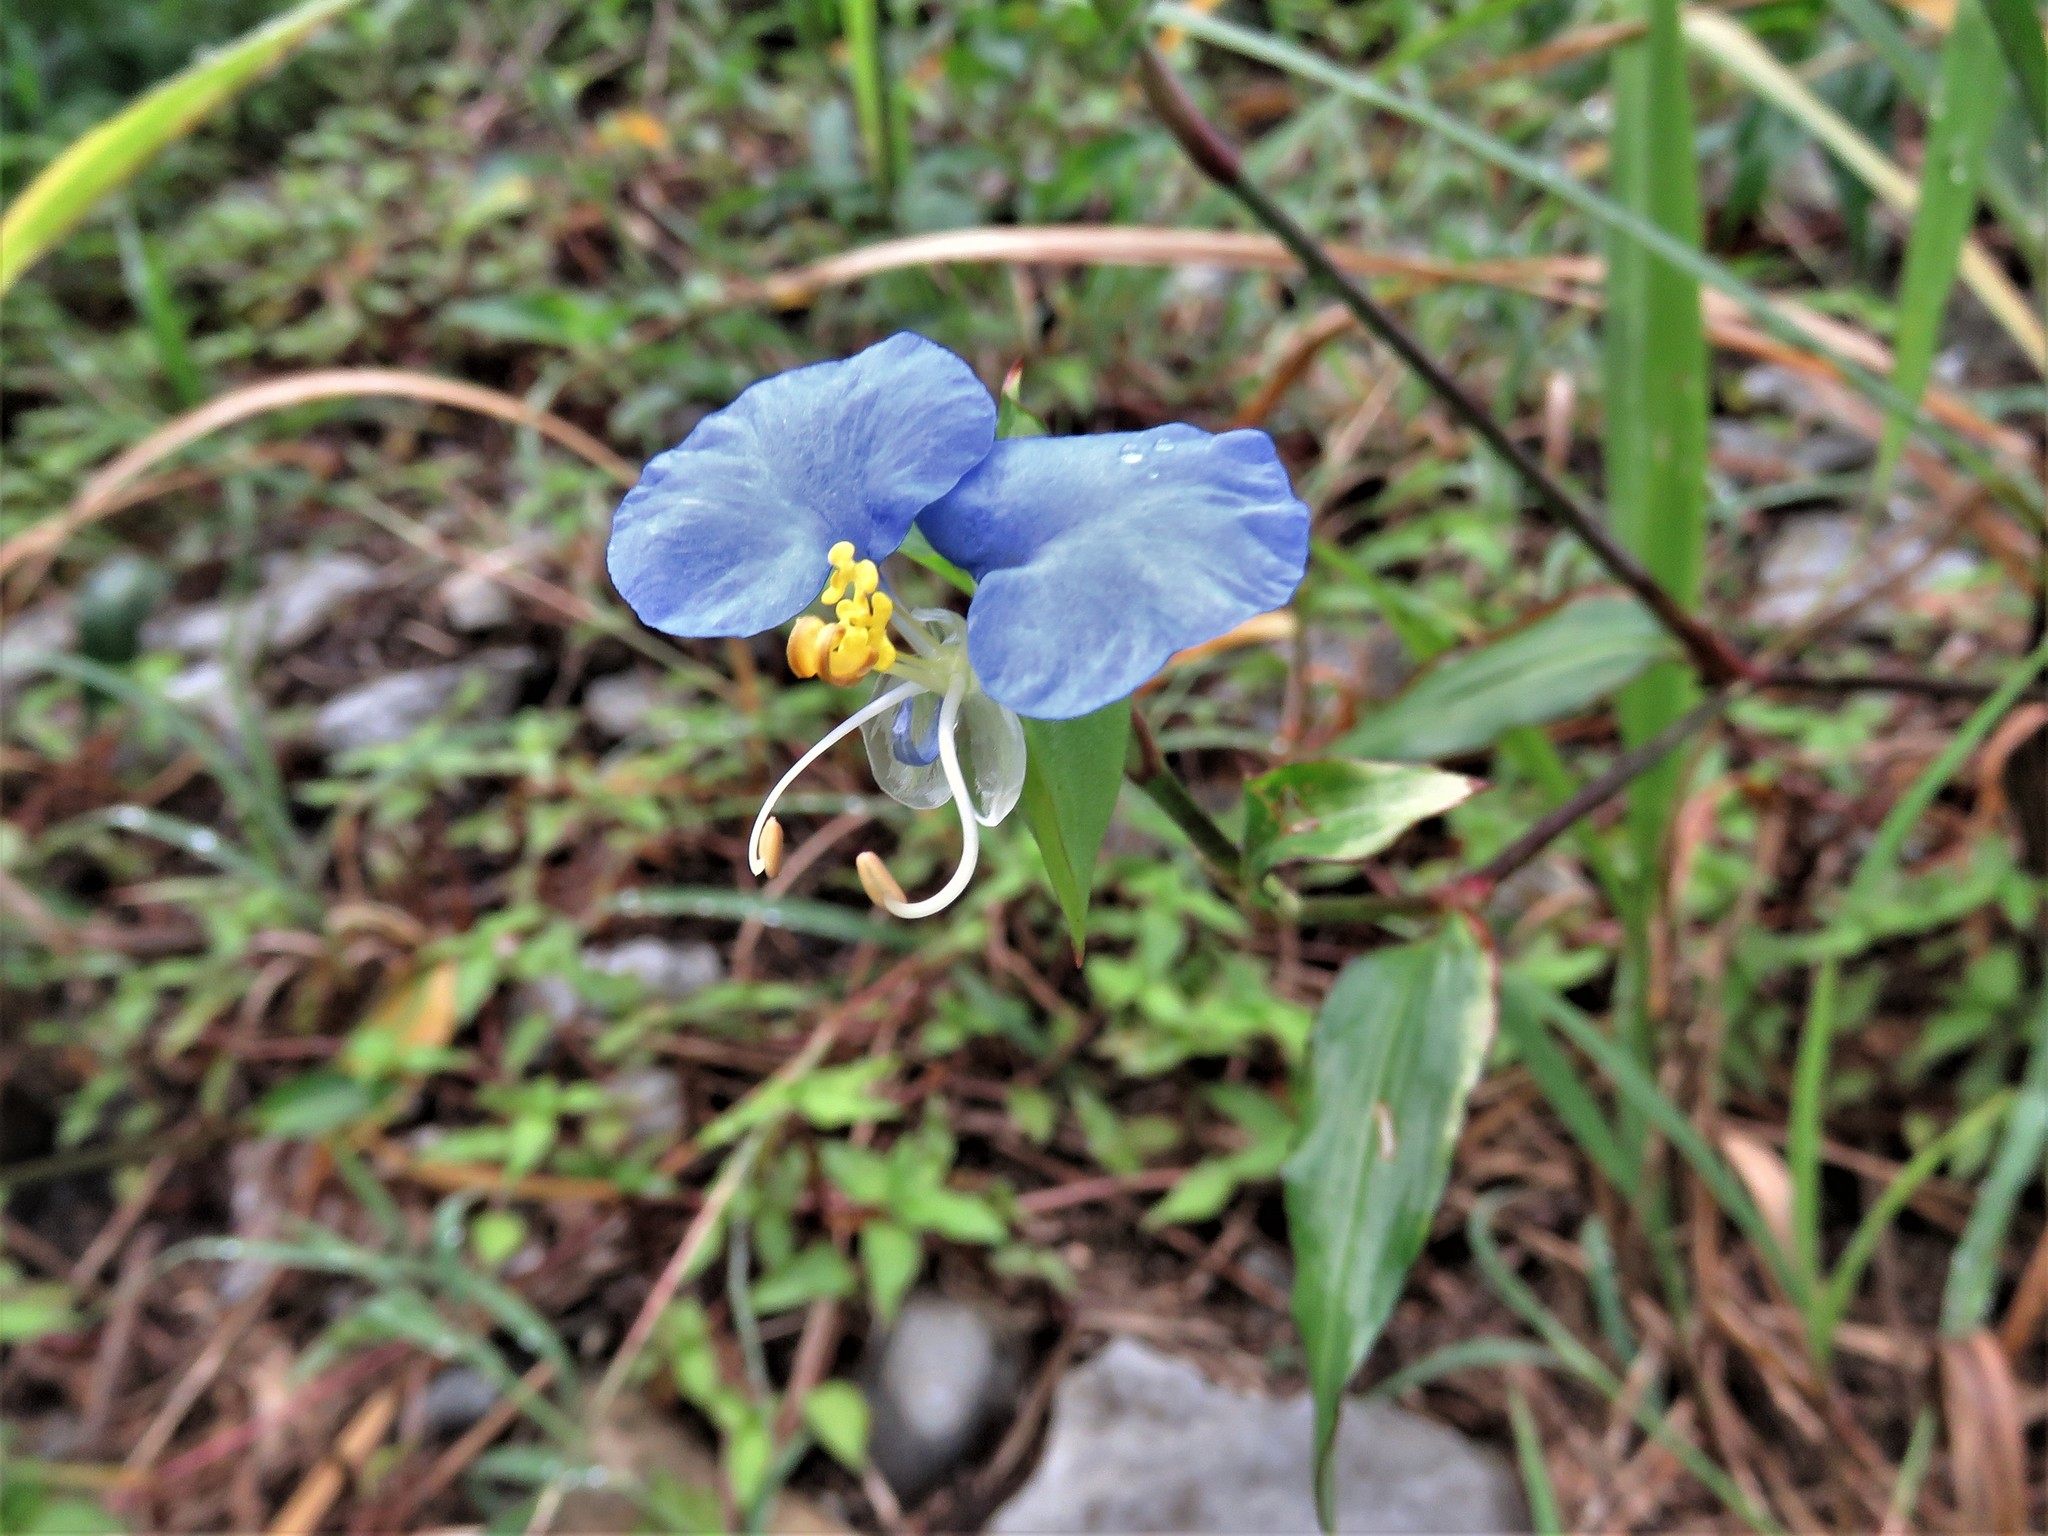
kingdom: Plantae
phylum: Tracheophyta
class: Liliopsida
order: Commelinales
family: Commelinaceae
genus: Commelina
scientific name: Commelina erecta
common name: Blousel blommetjie
